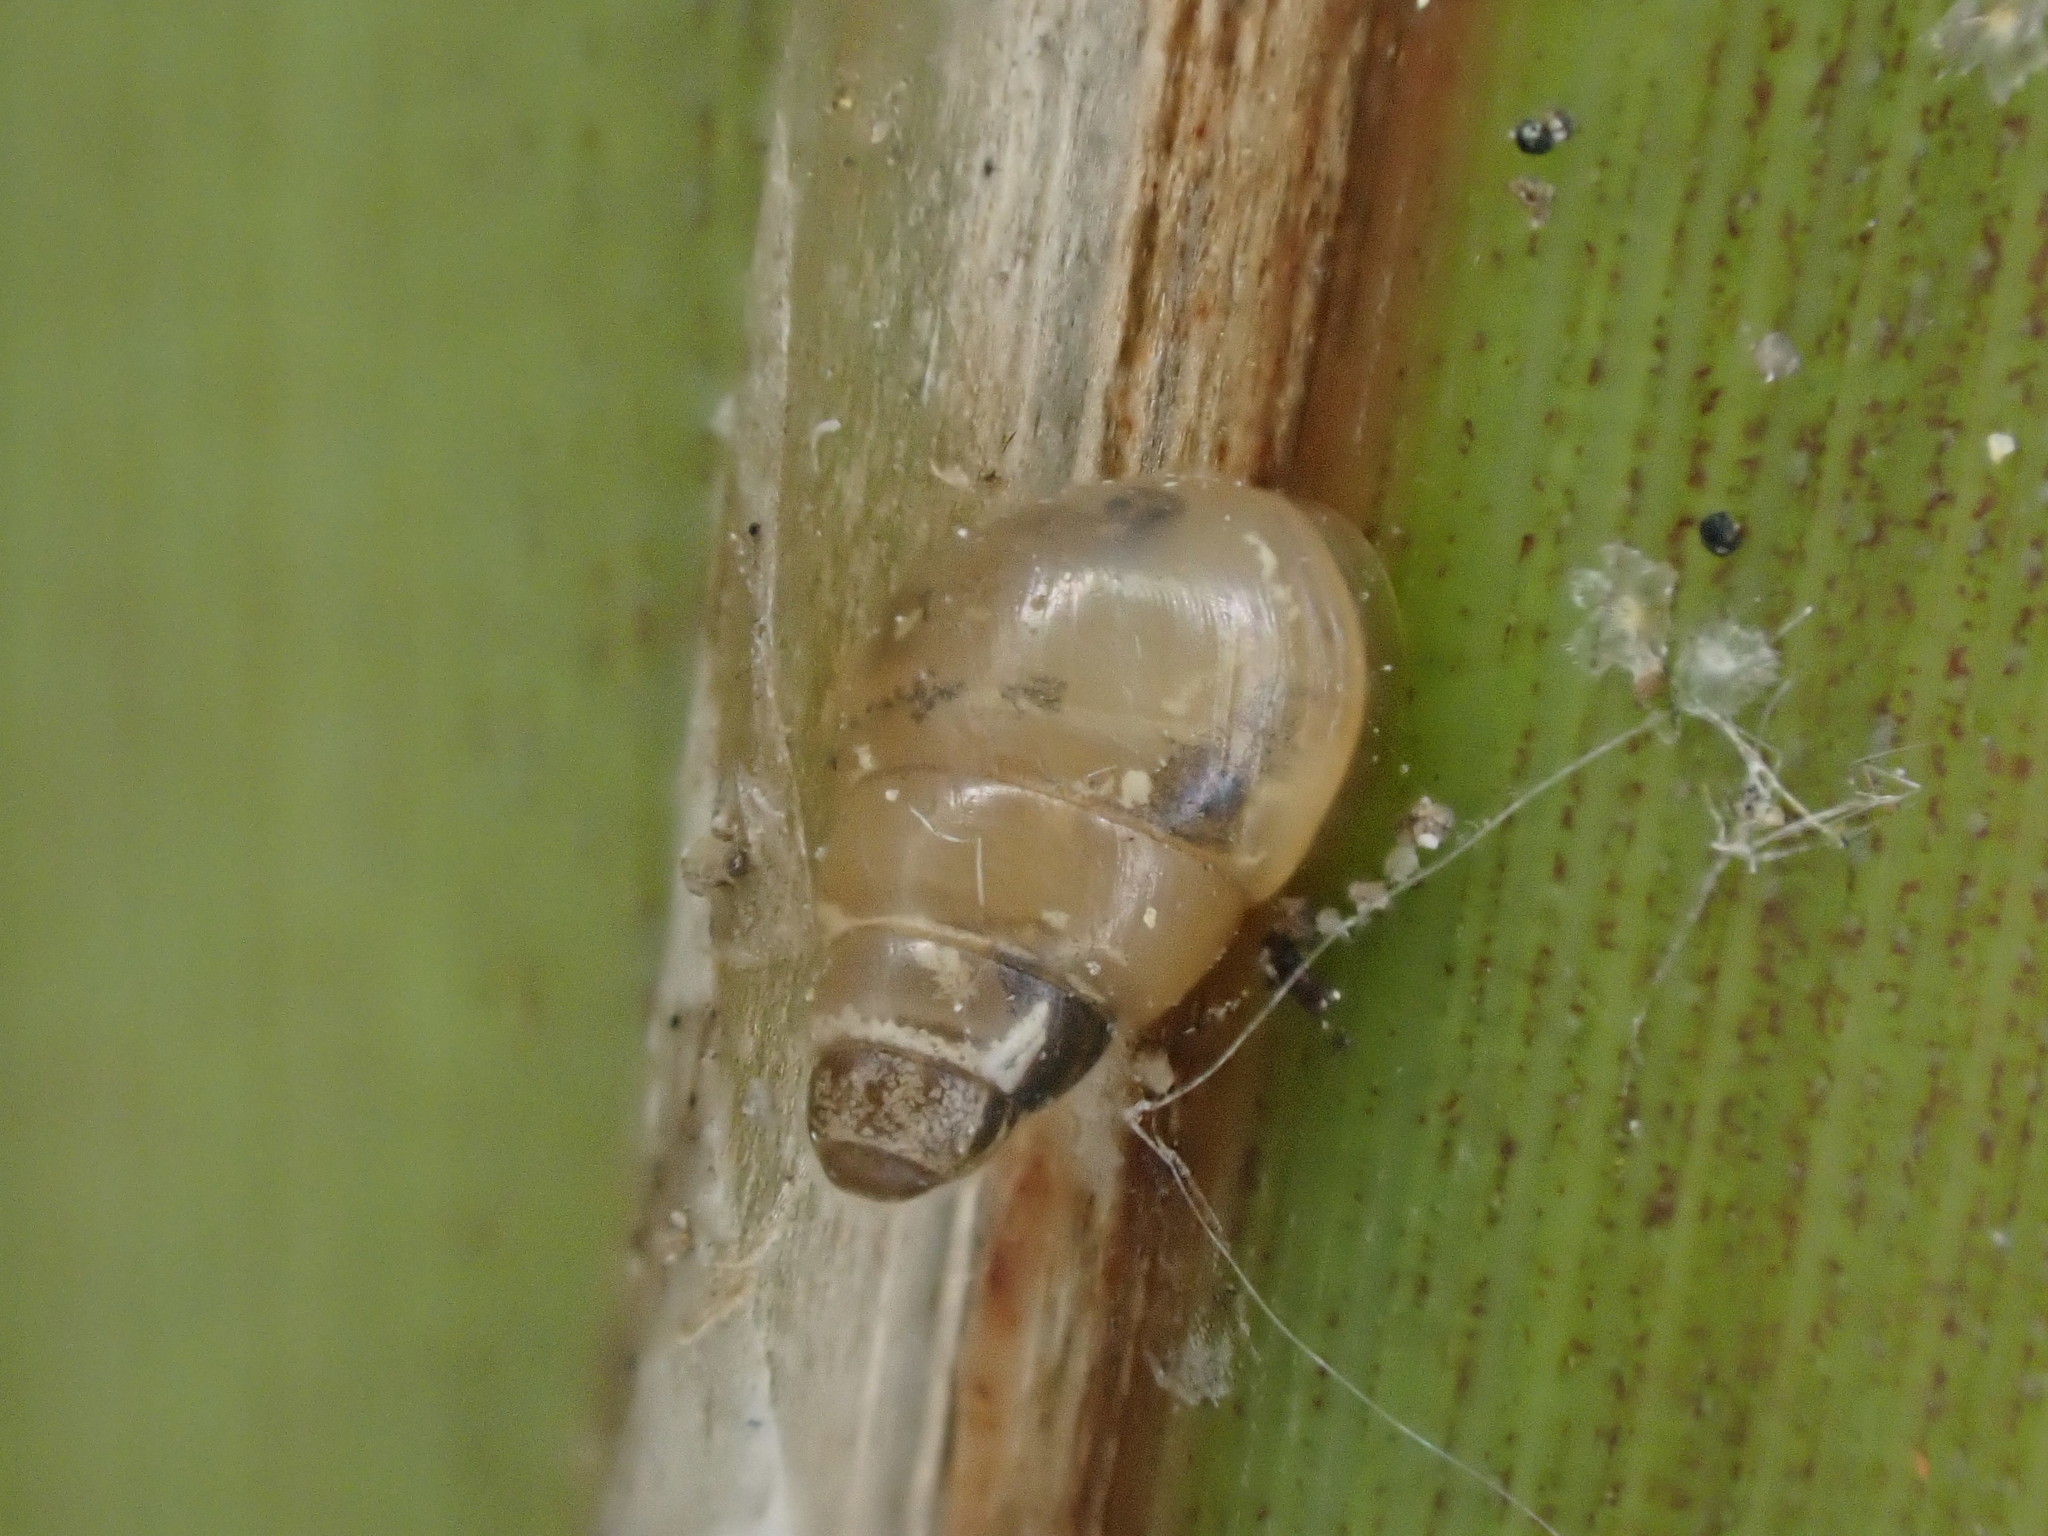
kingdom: Animalia
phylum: Mollusca
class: Gastropoda
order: Stylommatophora
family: Achatinellidae
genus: Tornatellides
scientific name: Tornatellides subperforatus
